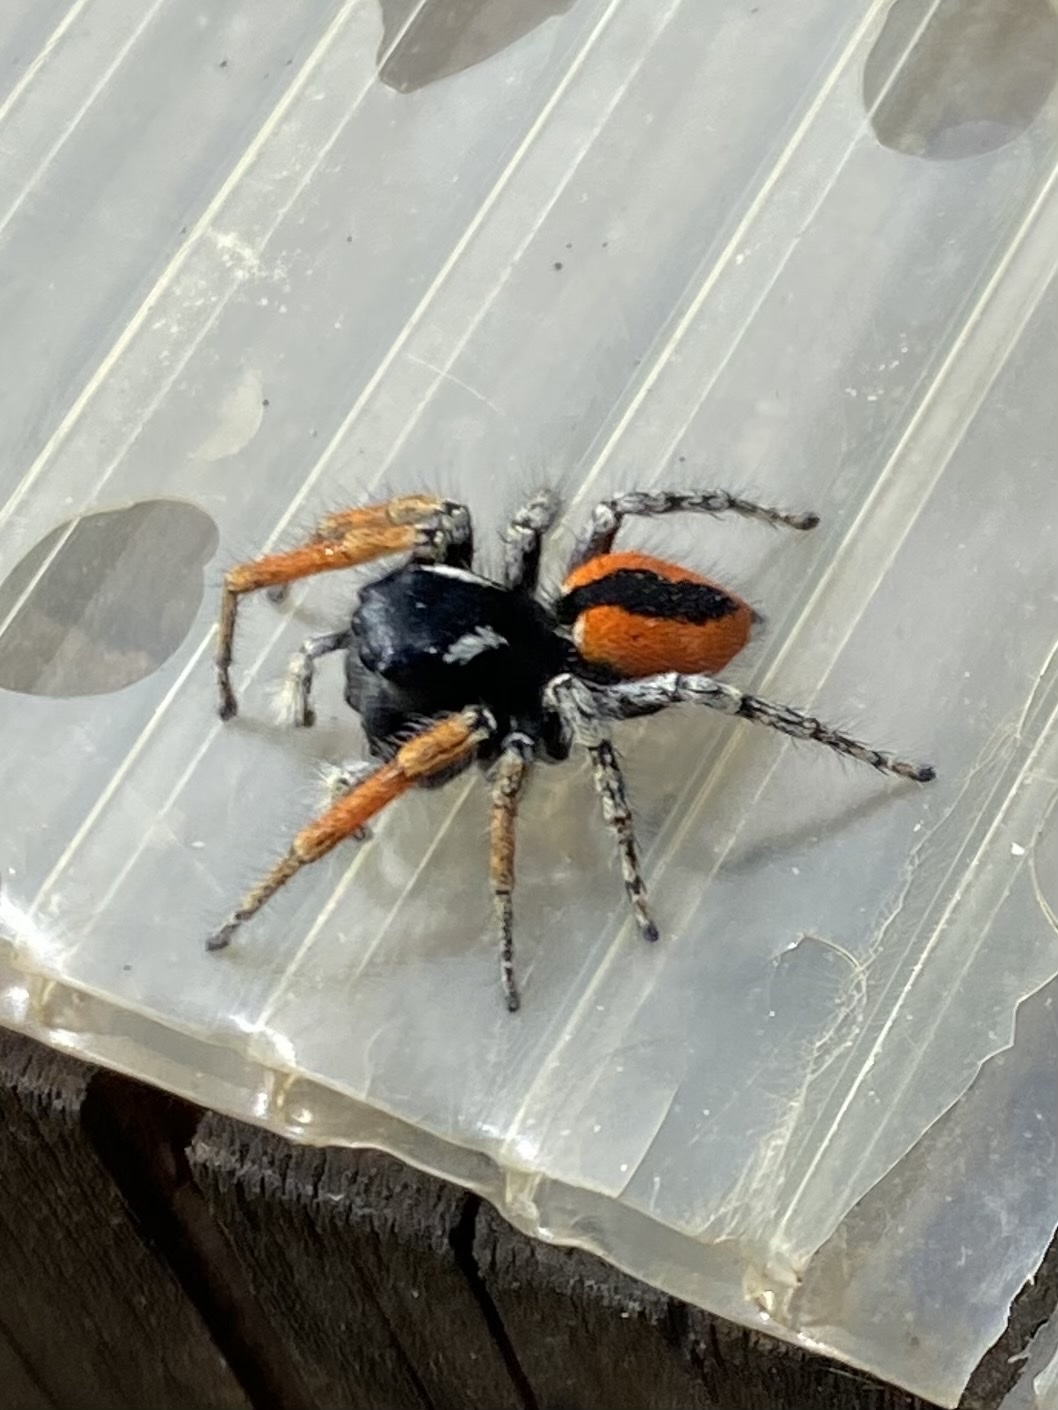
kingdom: Animalia
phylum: Arthropoda
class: Arachnida
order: Araneae
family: Salticidae
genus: Philaeus
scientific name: Philaeus chrysops
